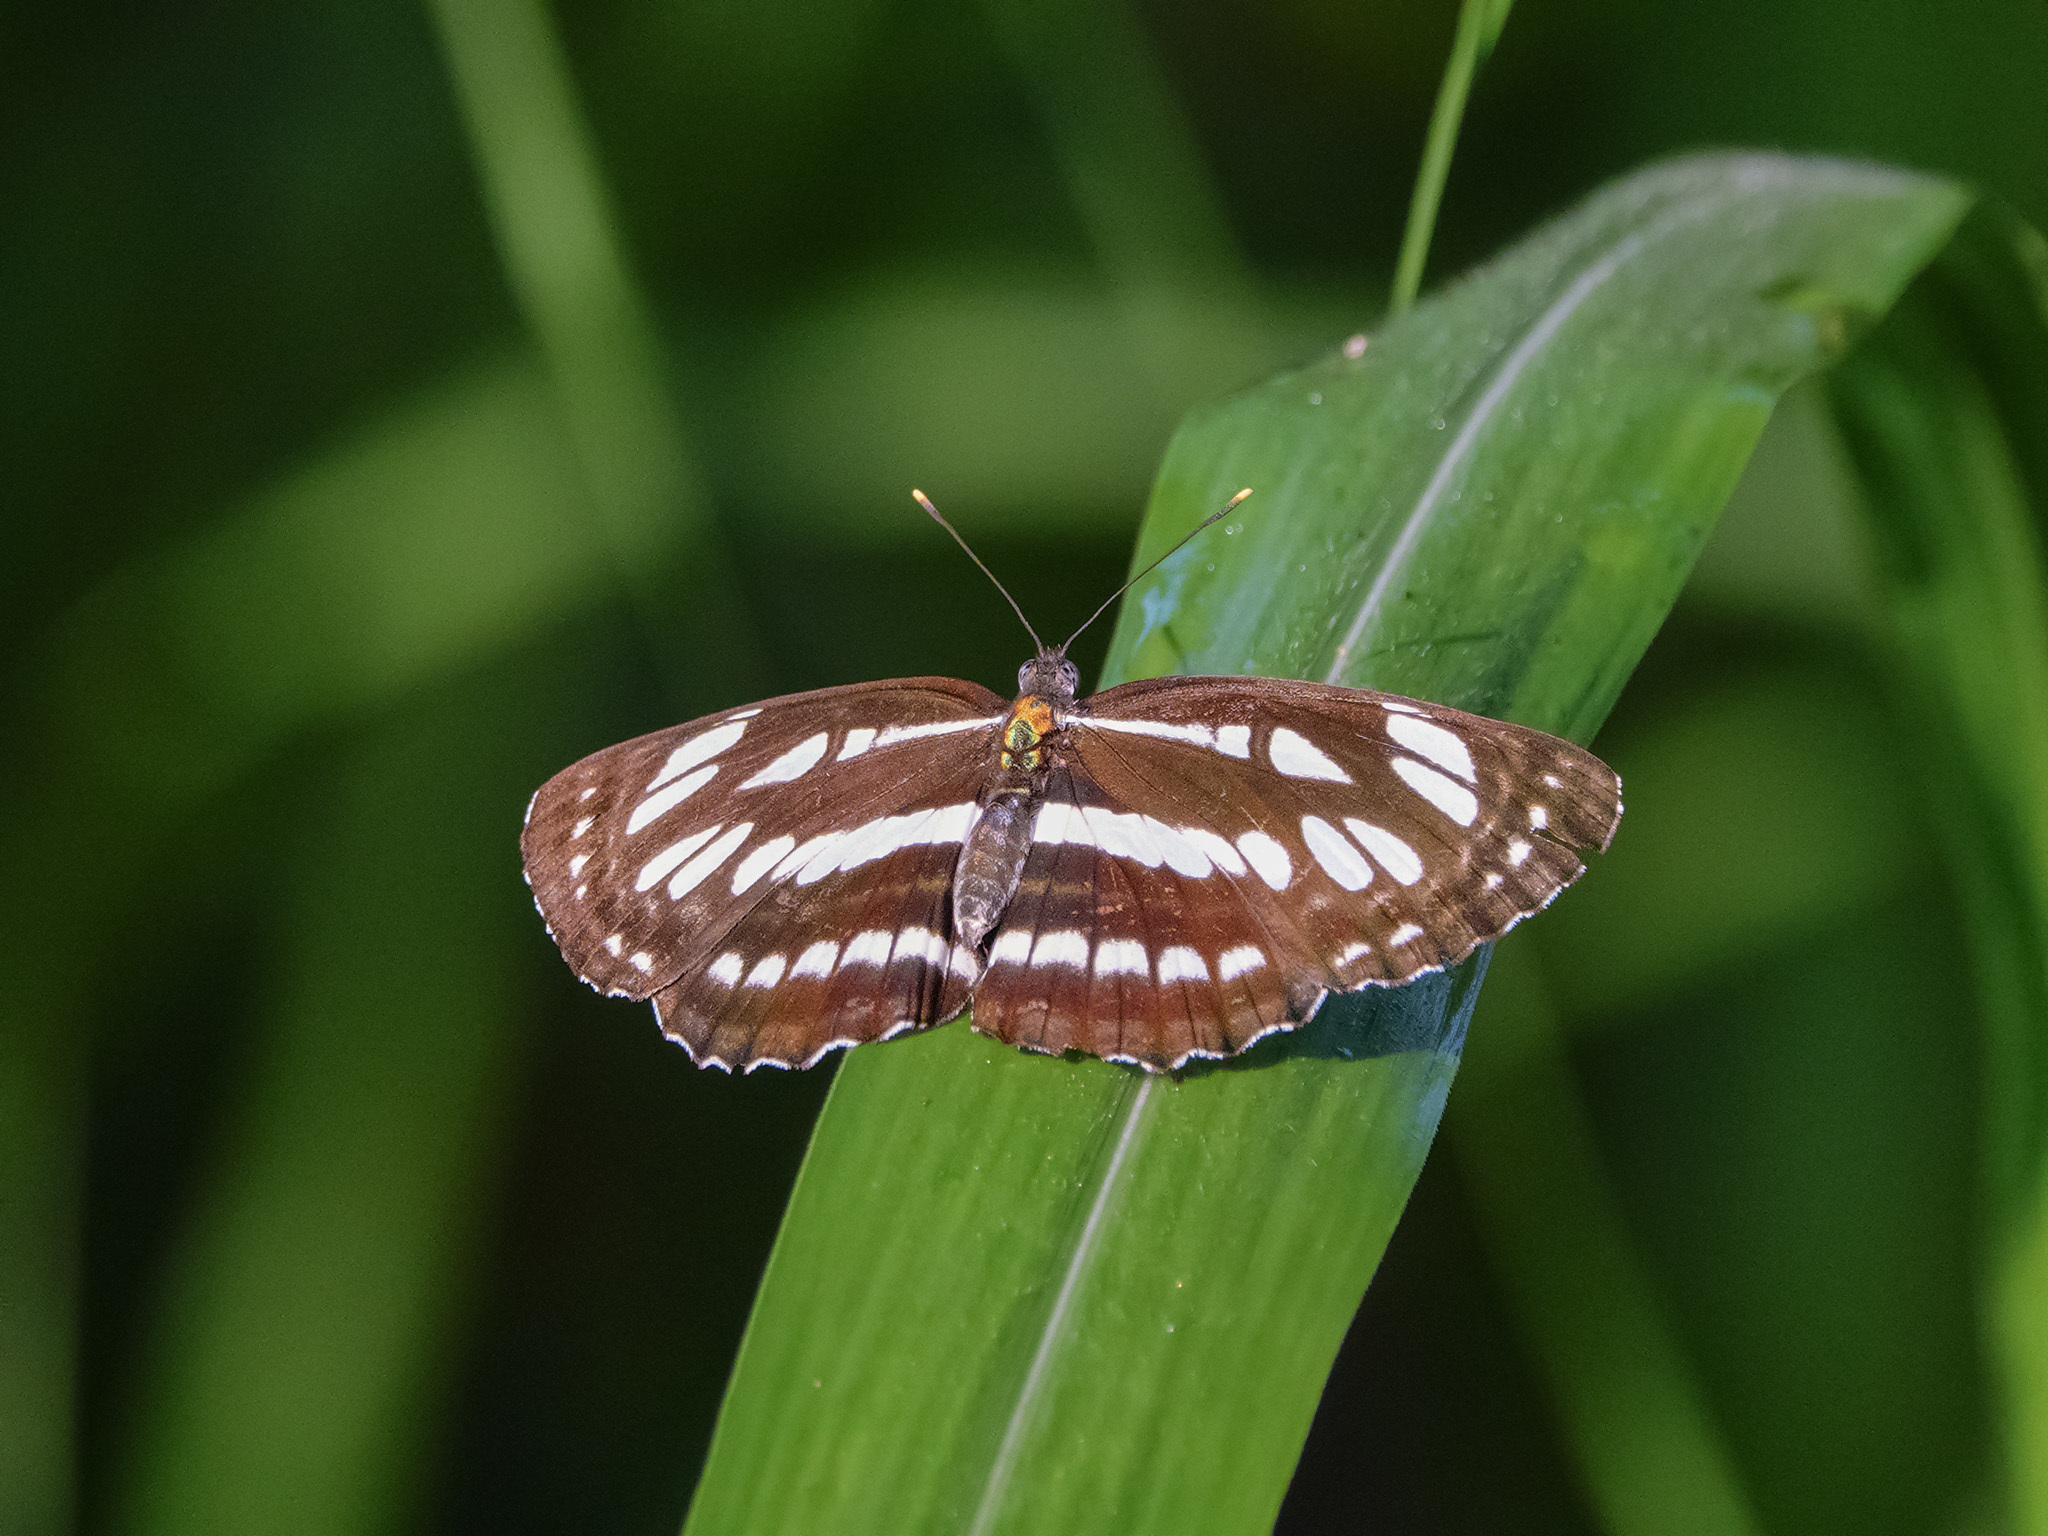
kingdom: Animalia
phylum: Arthropoda
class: Insecta
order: Lepidoptera
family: Nymphalidae
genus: Neptis
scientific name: Neptis hylas
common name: Common sailer
